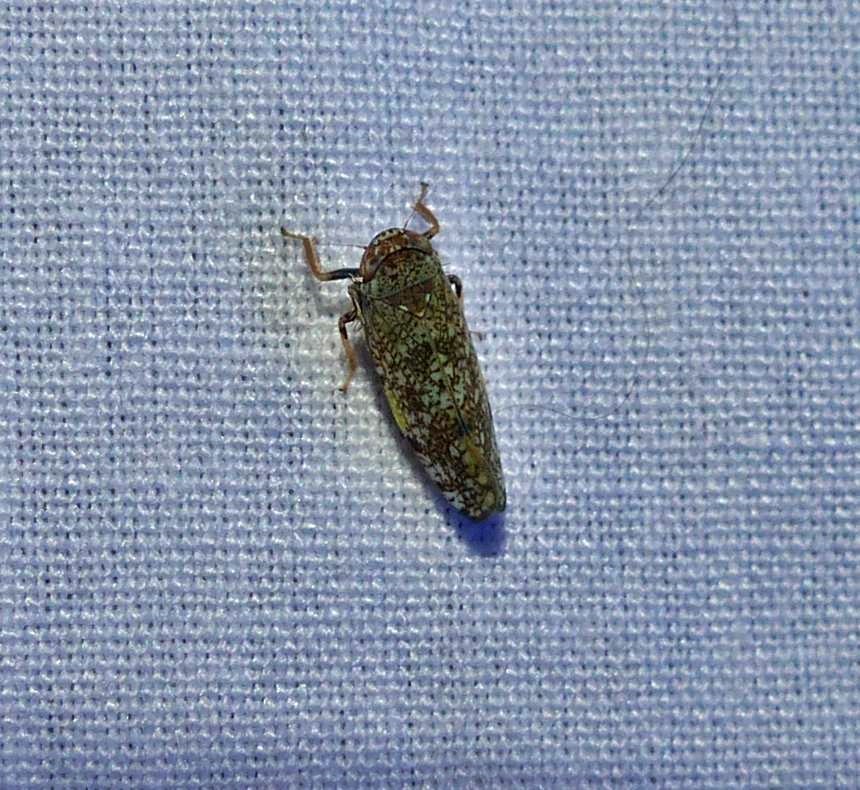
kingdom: Animalia
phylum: Arthropoda
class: Insecta
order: Hemiptera
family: Cicadellidae
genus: Orientus
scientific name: Orientus ishidae
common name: Japanese leafhopper
